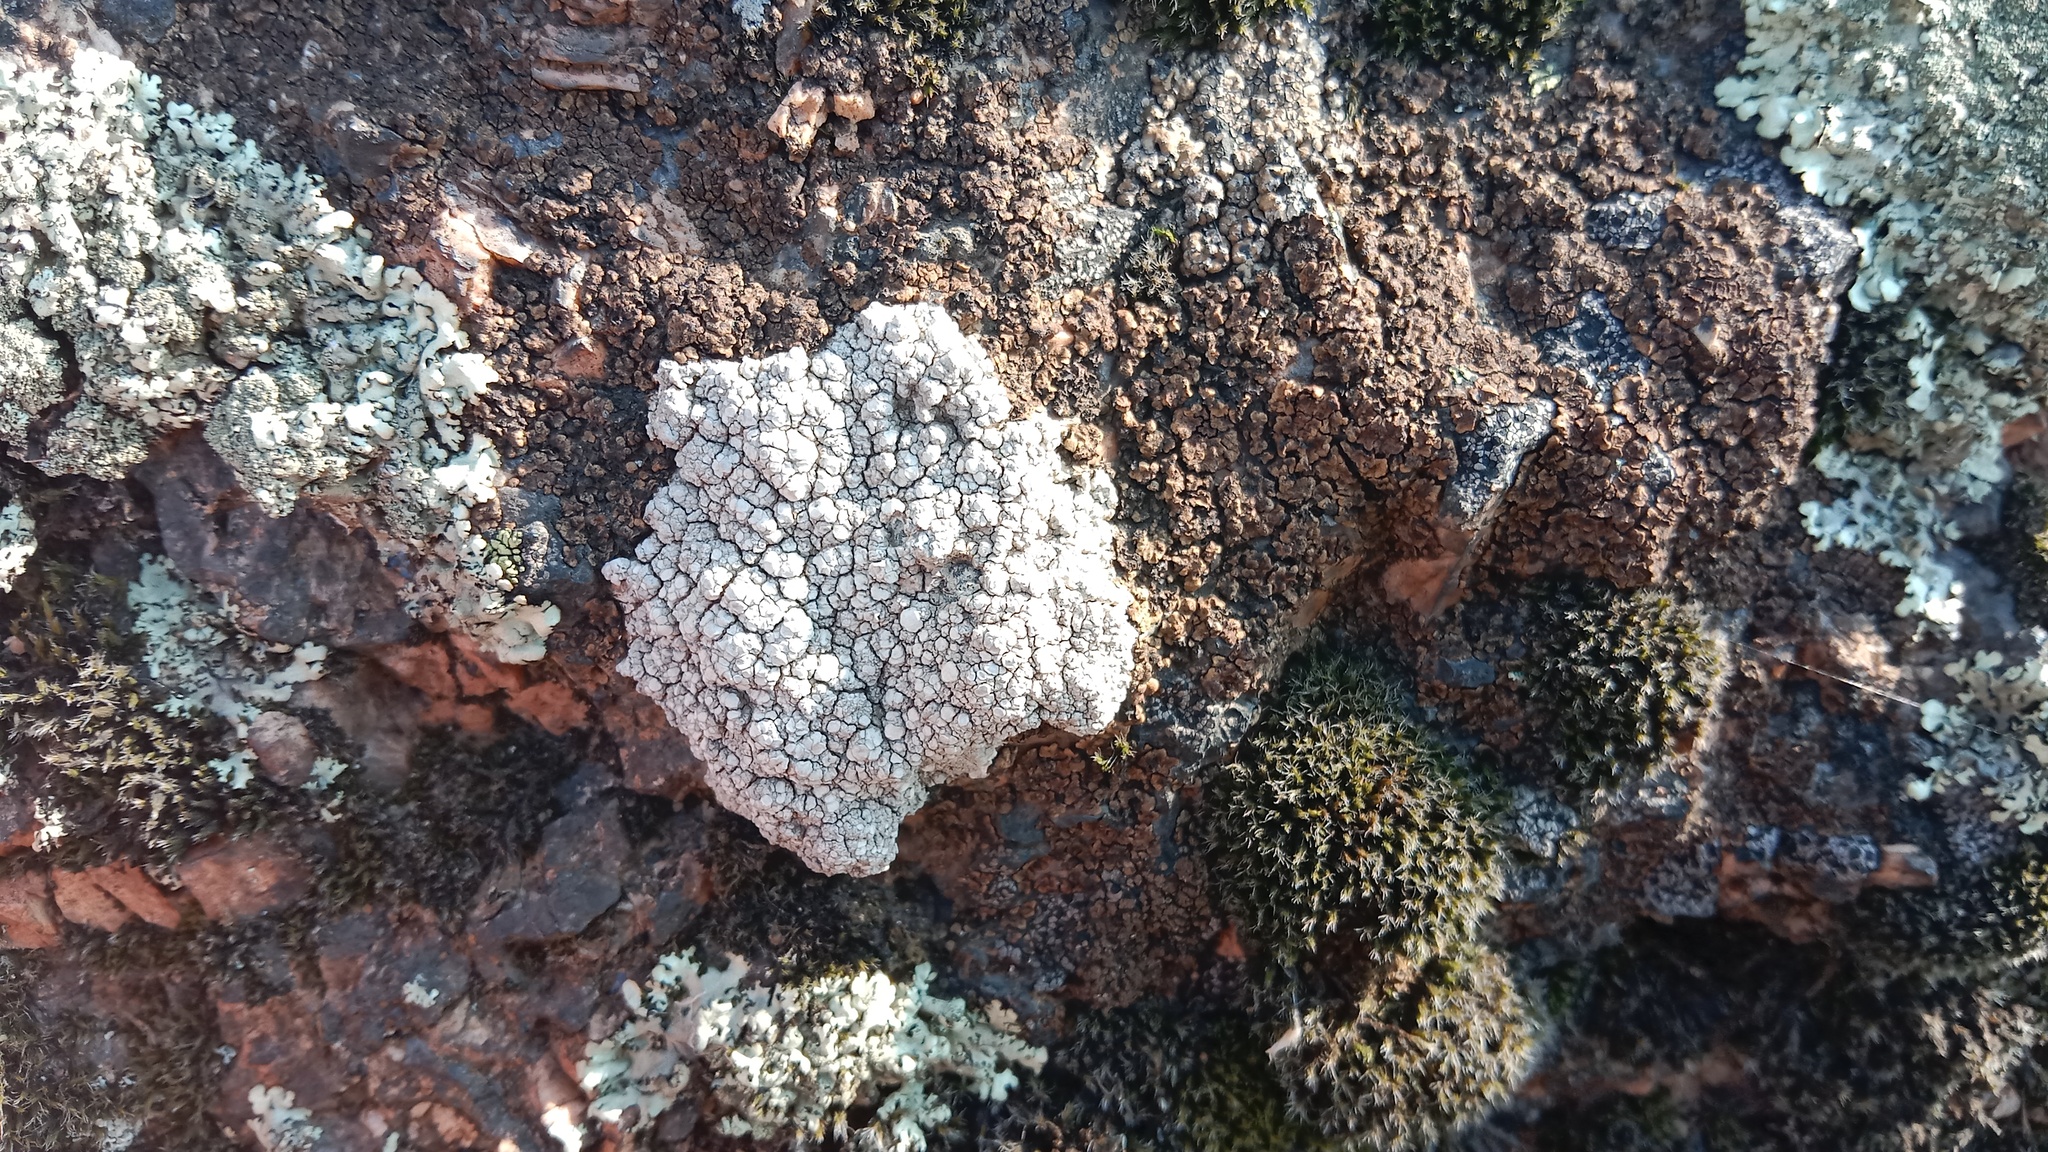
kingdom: Fungi
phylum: Ascomycota
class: Lecanoromycetes
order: Lecanorales
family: Lecanoraceae
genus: Glaucomaria
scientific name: Glaucomaria rupicola
